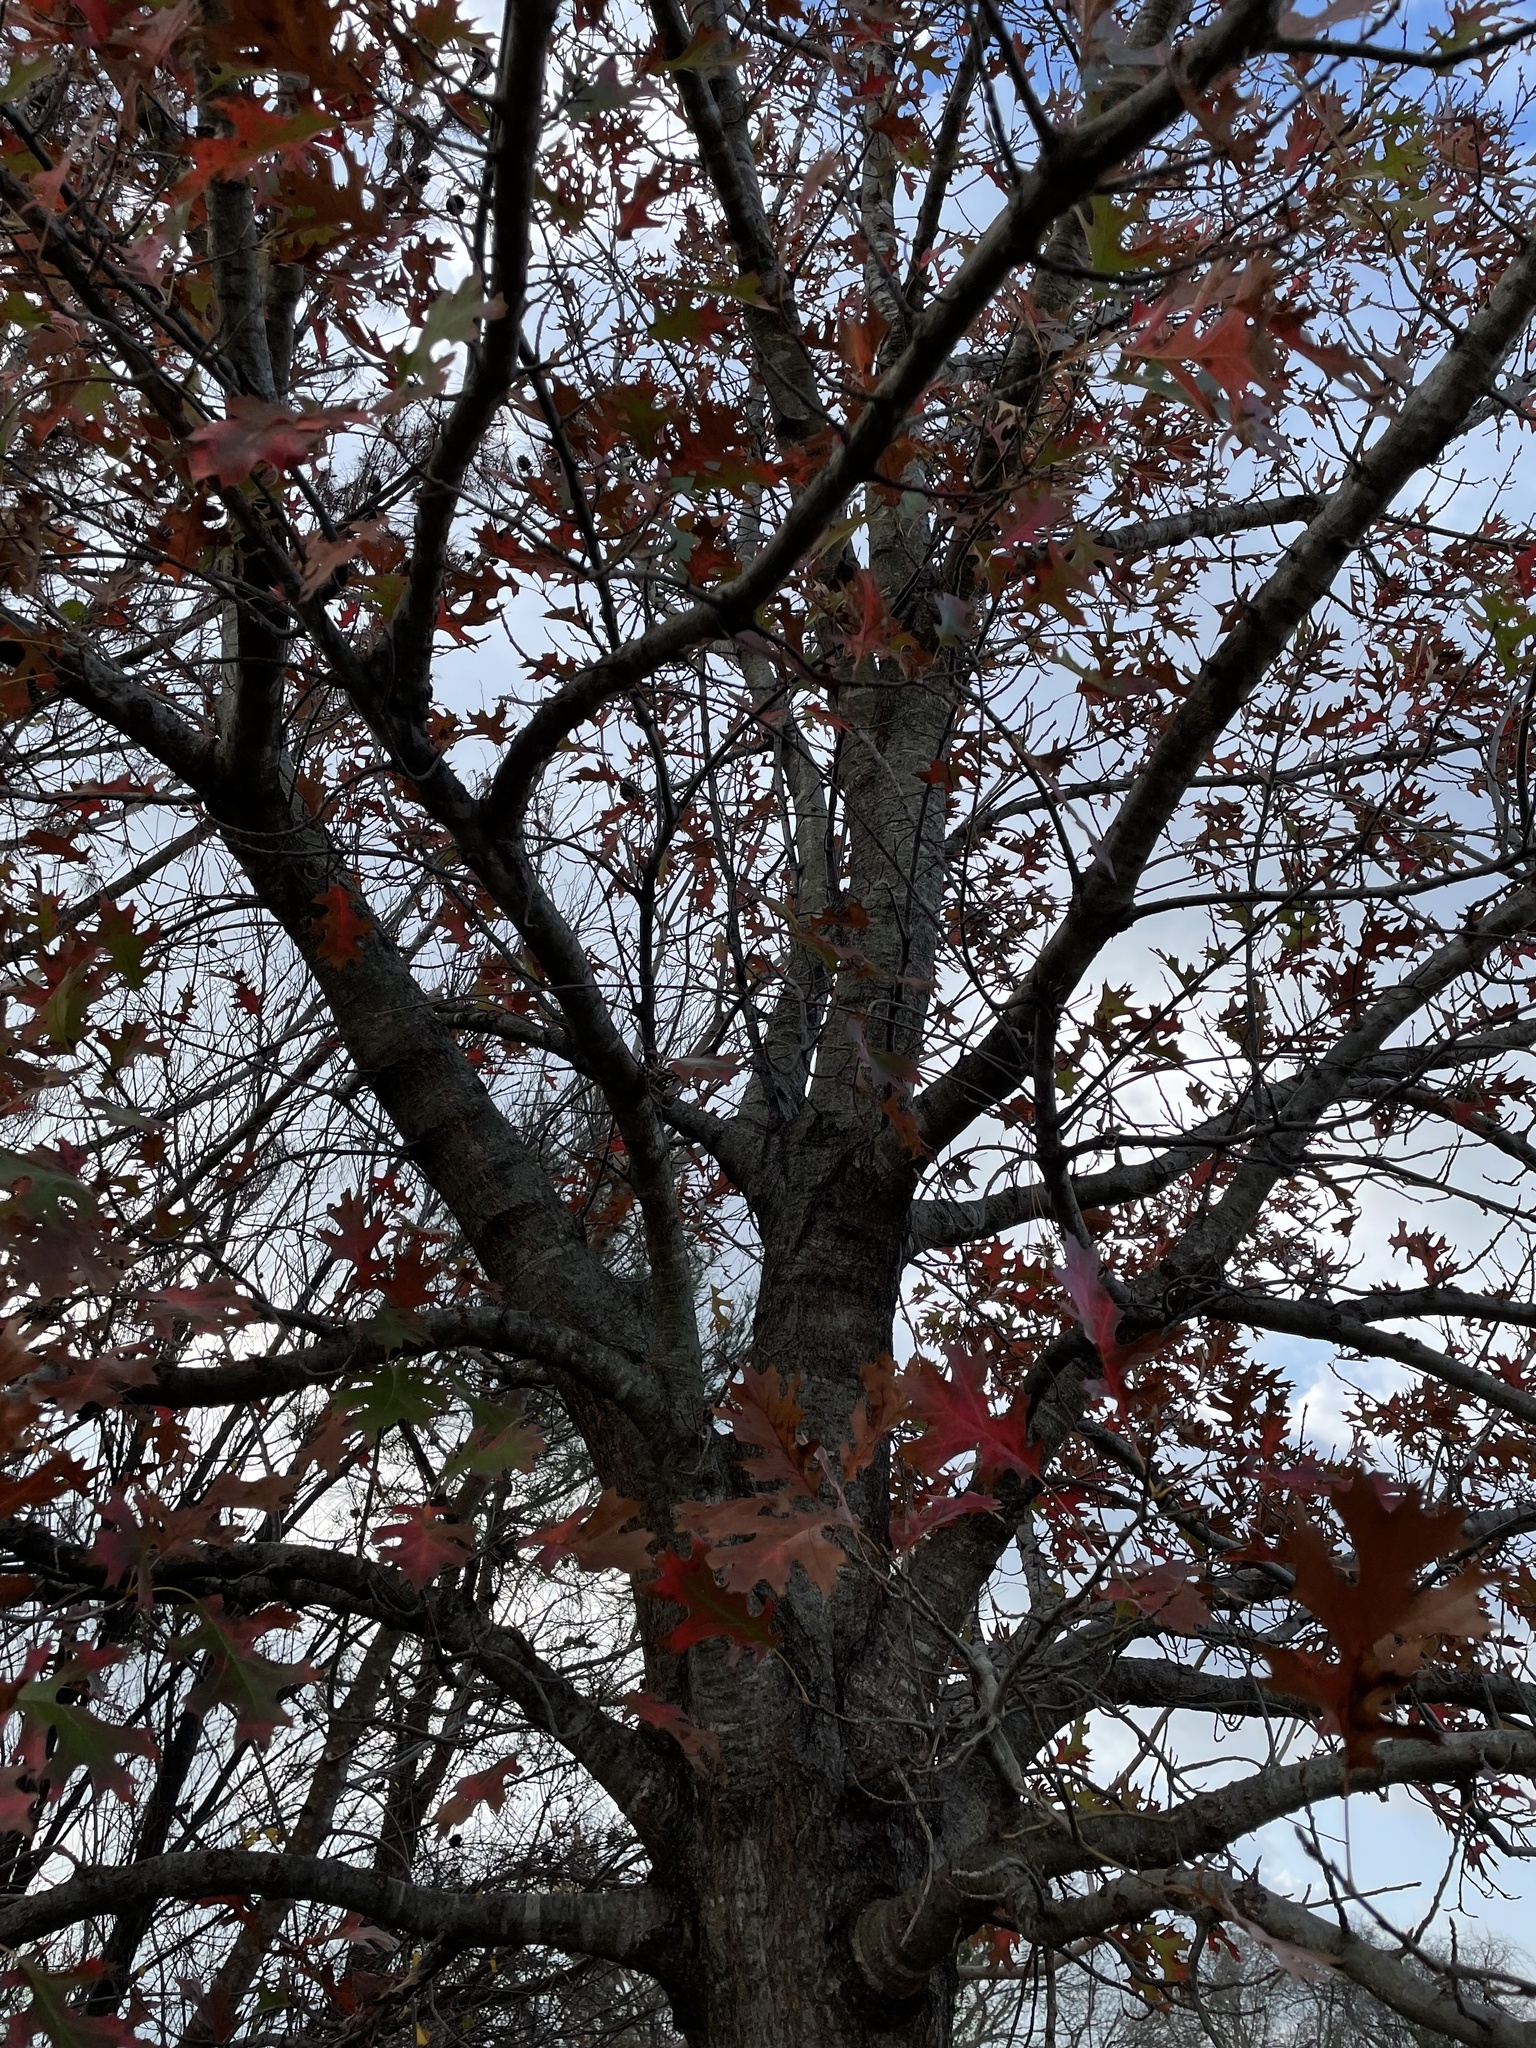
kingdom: Plantae
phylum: Tracheophyta
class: Magnoliopsida
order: Fagales
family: Fagaceae
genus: Quercus
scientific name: Quercus shumardii
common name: Shumard oak
